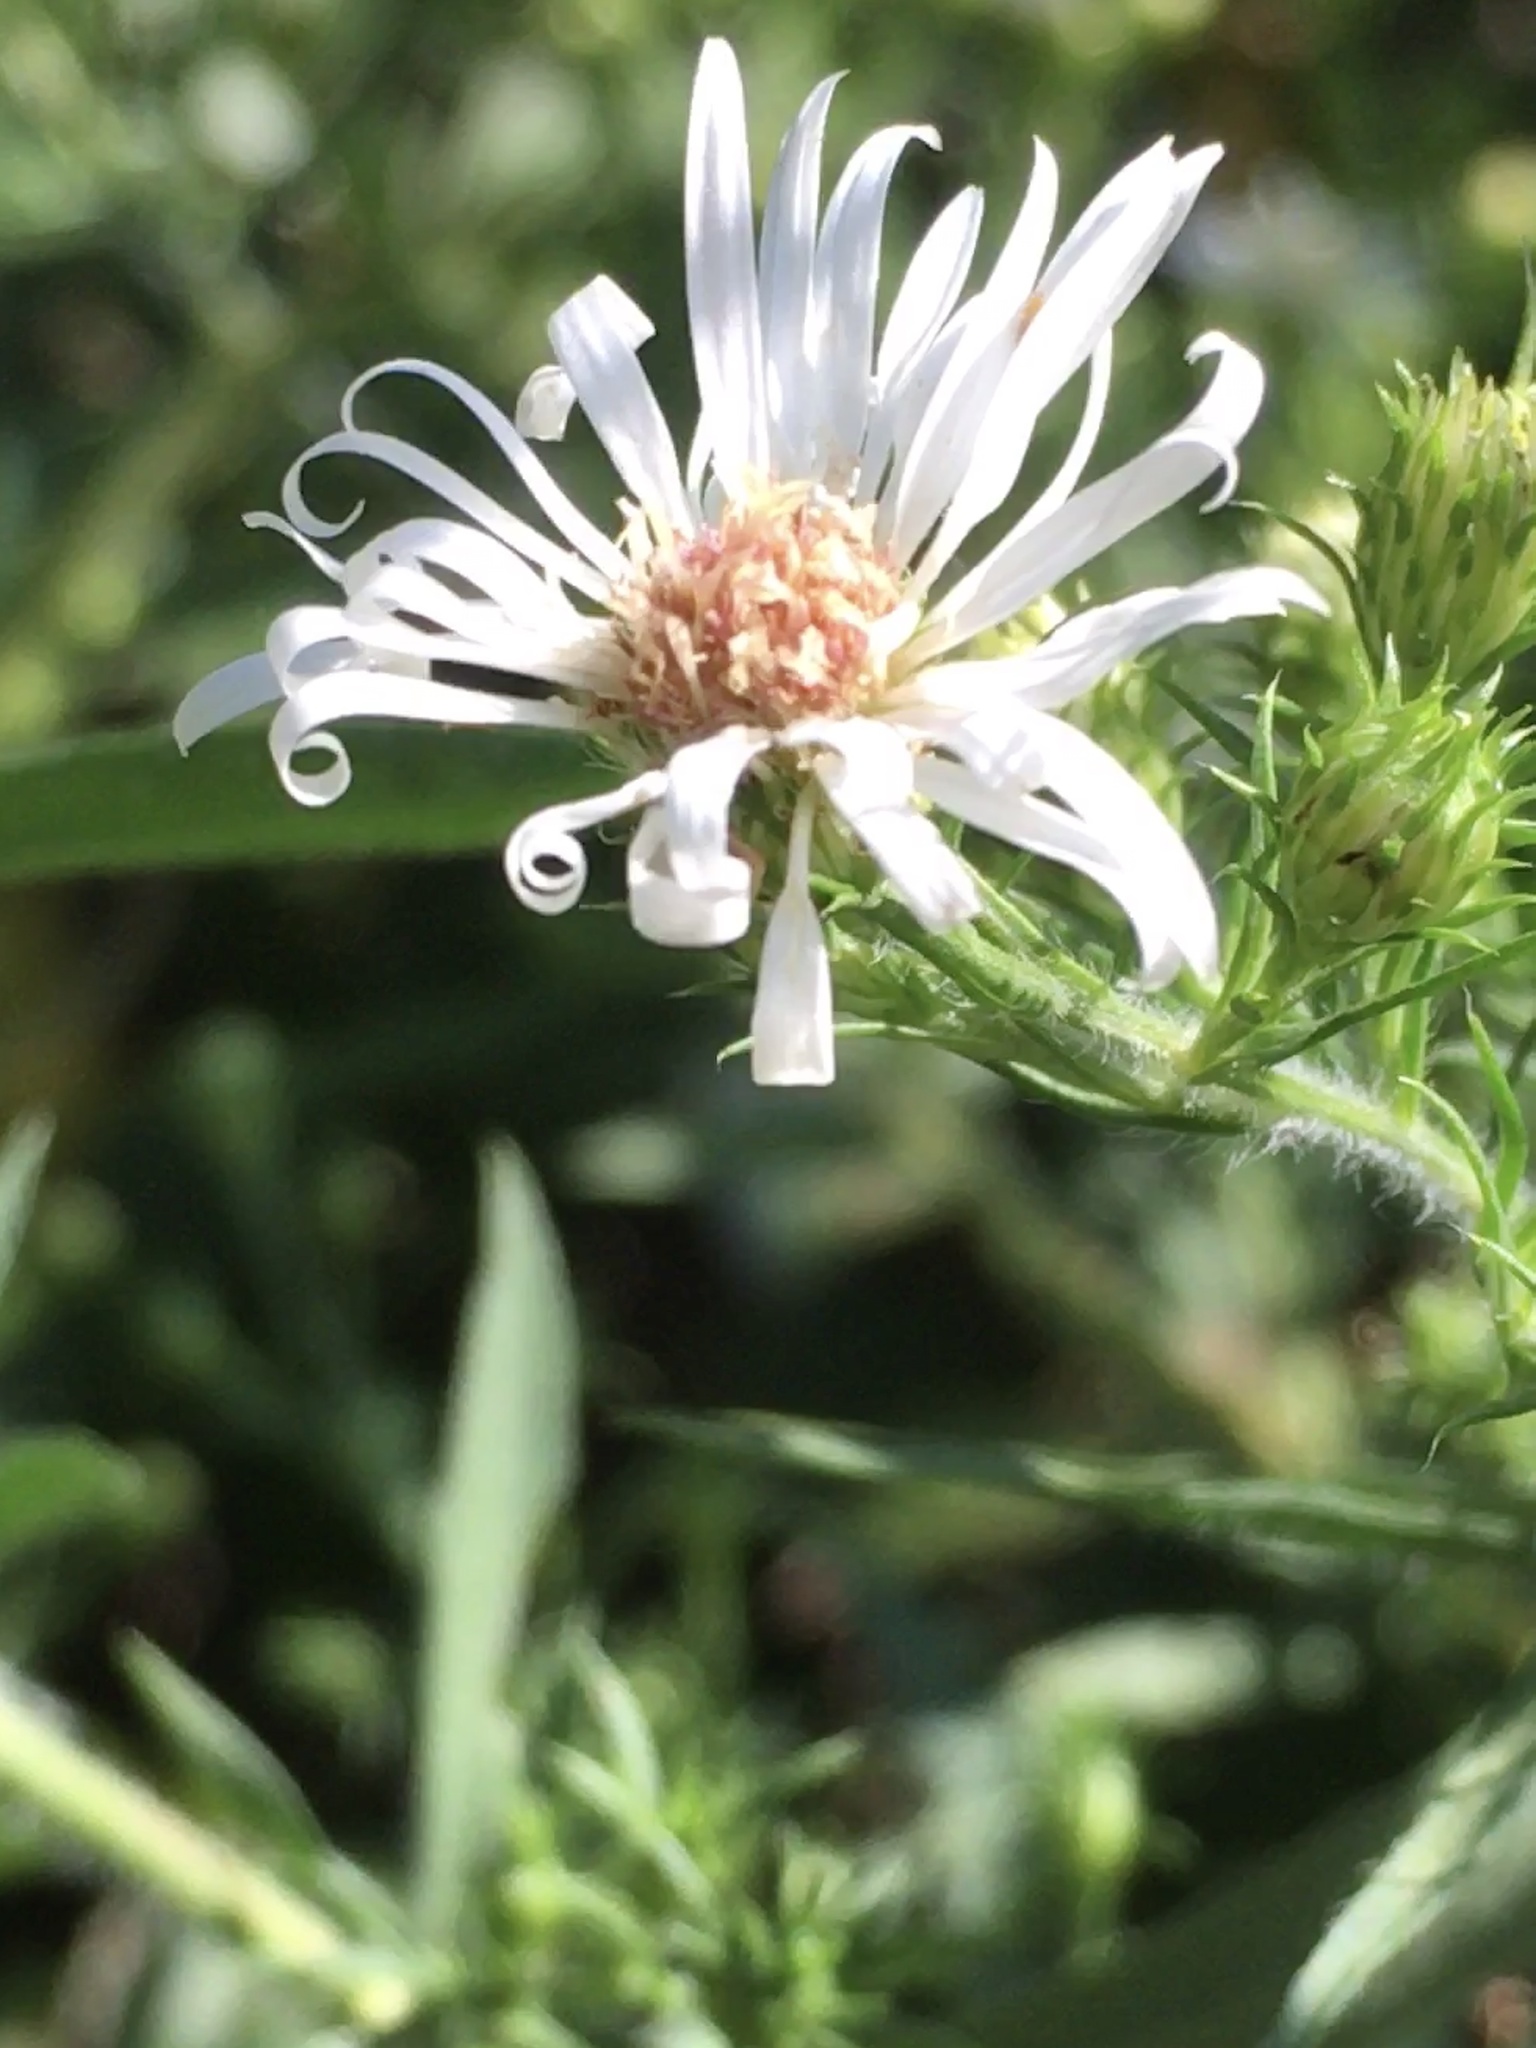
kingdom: Plantae
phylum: Tracheophyta
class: Magnoliopsida
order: Asterales
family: Asteraceae
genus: Symphyotrichum
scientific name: Symphyotrichum pilosum
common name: Awl aster
